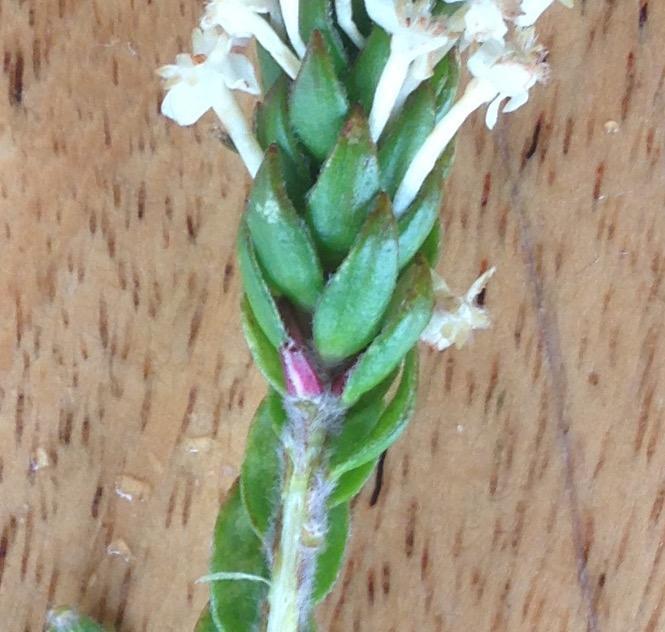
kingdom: Plantae
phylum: Tracheophyta
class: Magnoliopsida
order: Malvales
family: Thymelaeaceae
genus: Struthiola
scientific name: Struthiola hirsuta
